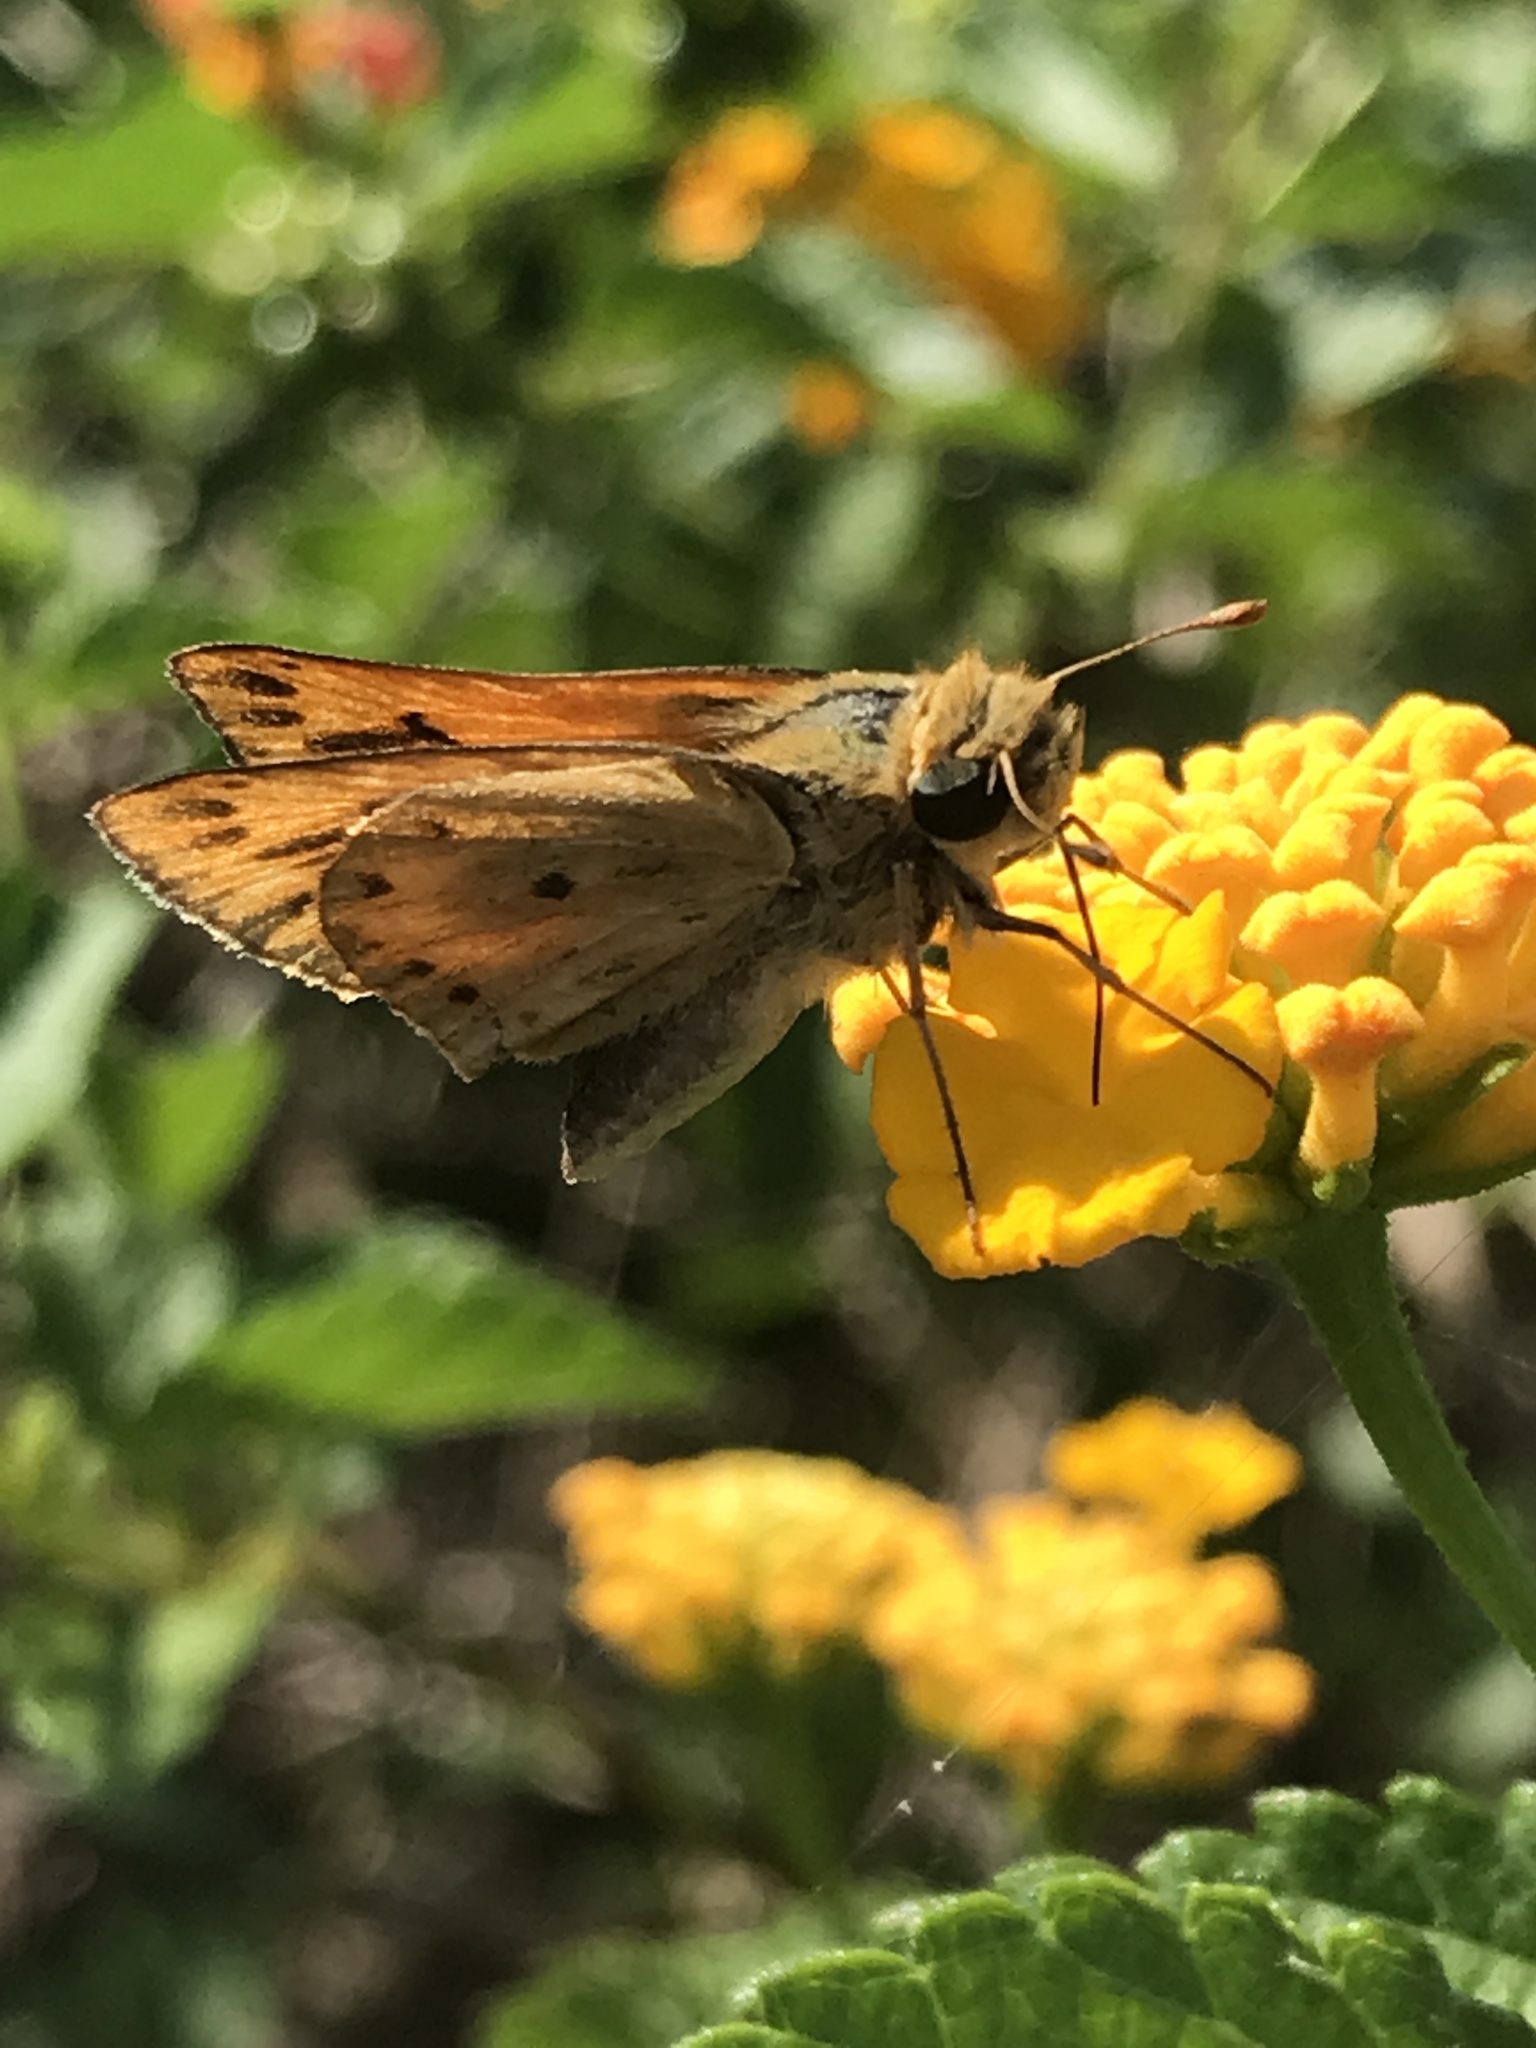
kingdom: Animalia
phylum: Arthropoda
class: Insecta
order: Lepidoptera
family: Hesperiidae
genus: Hylephila
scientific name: Hylephila phyleus
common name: Fiery skipper
